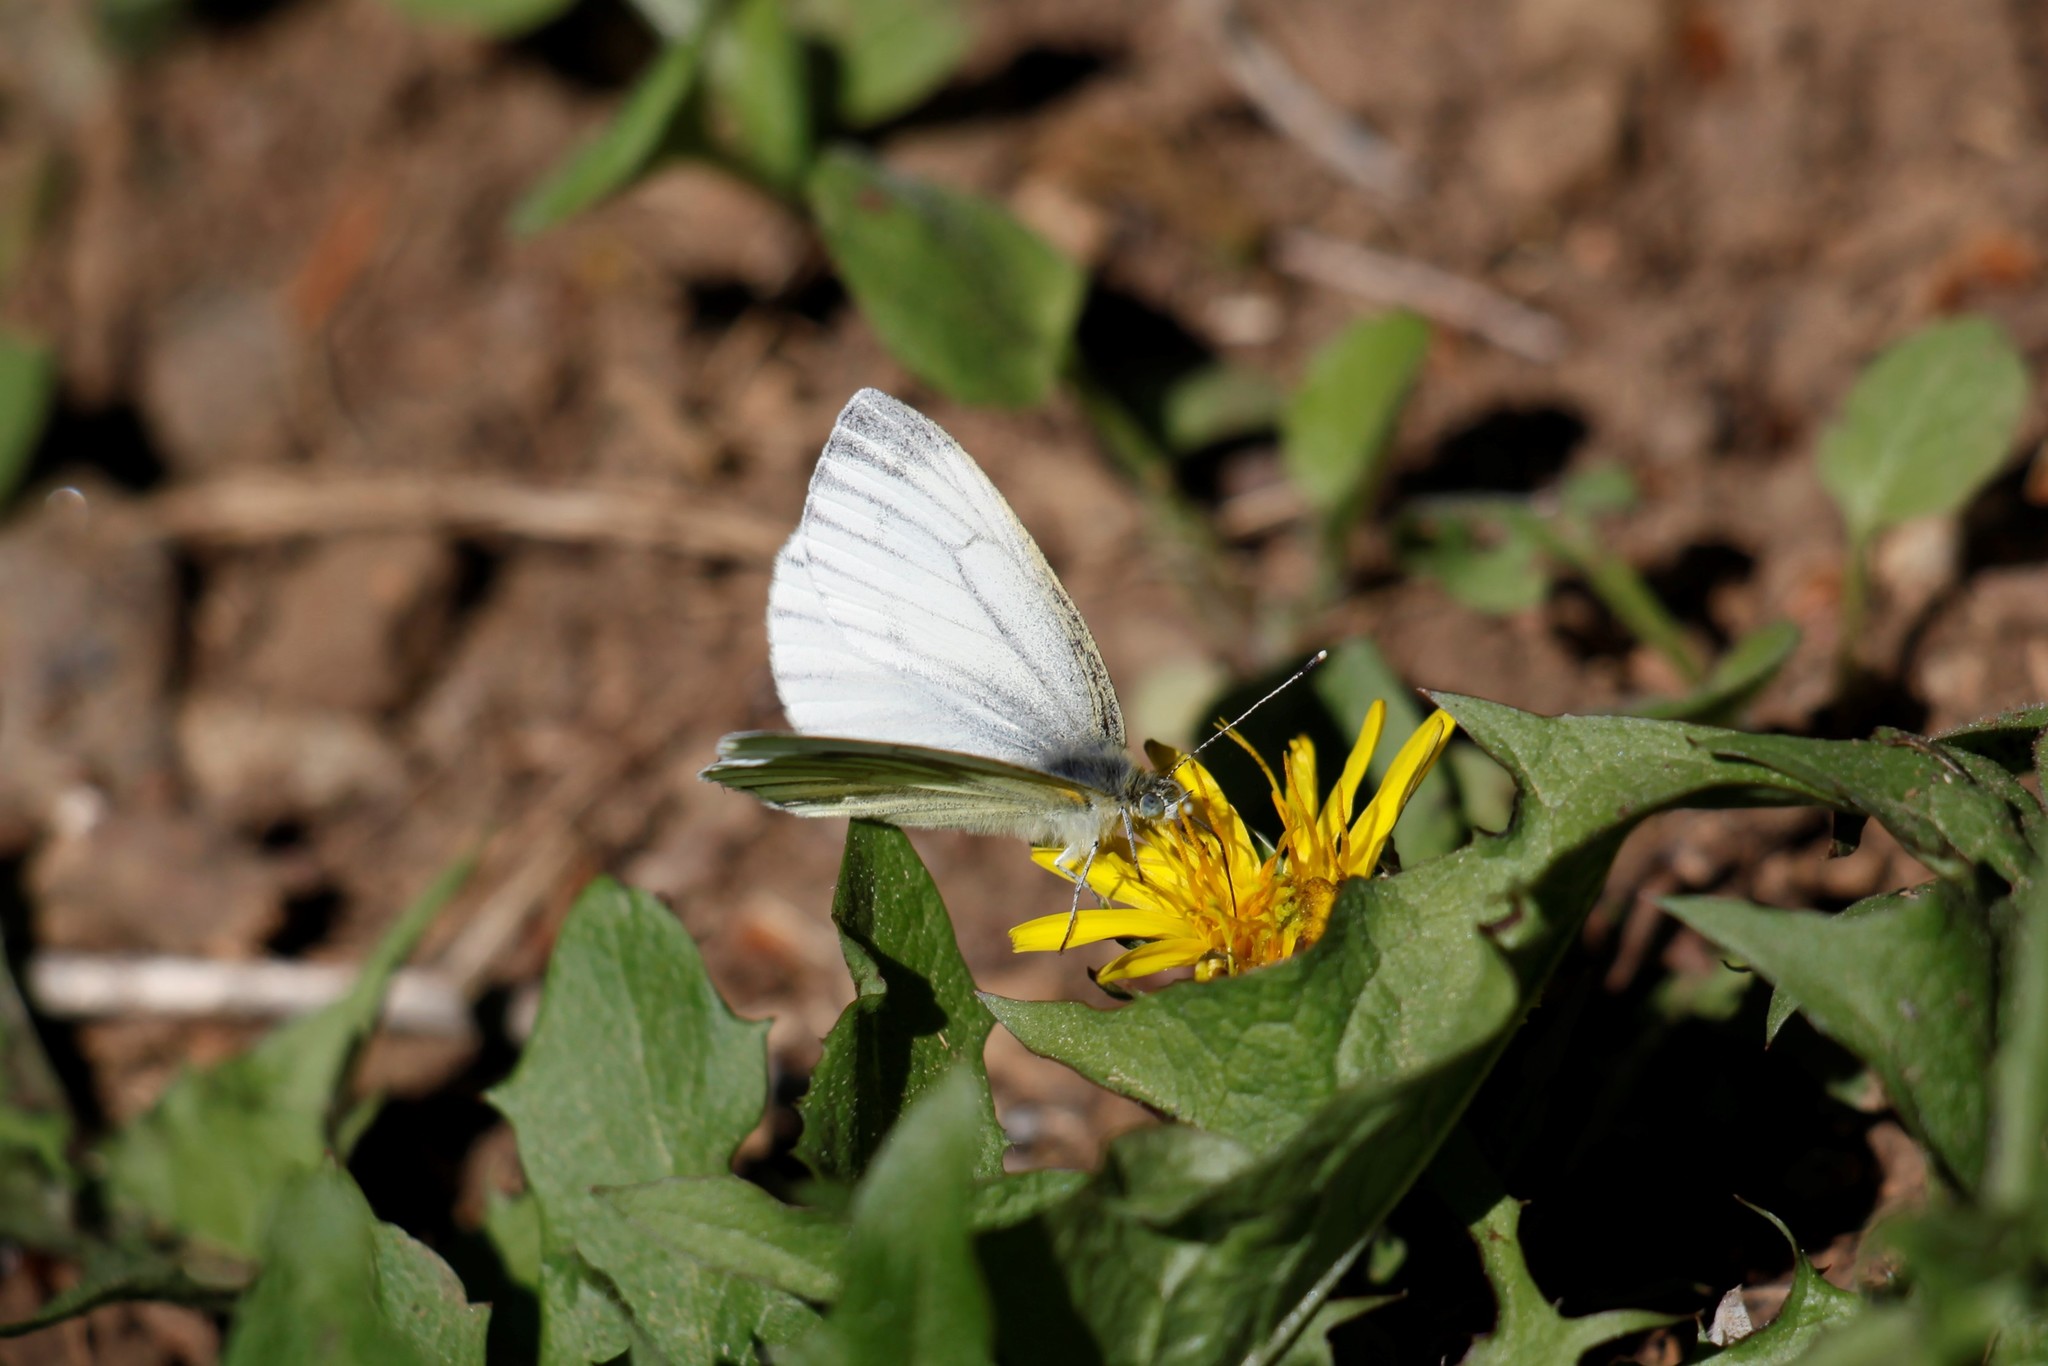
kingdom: Animalia
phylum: Arthropoda
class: Insecta
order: Lepidoptera
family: Pieridae
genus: Pieris
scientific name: Pieris napi
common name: Green-veined white
